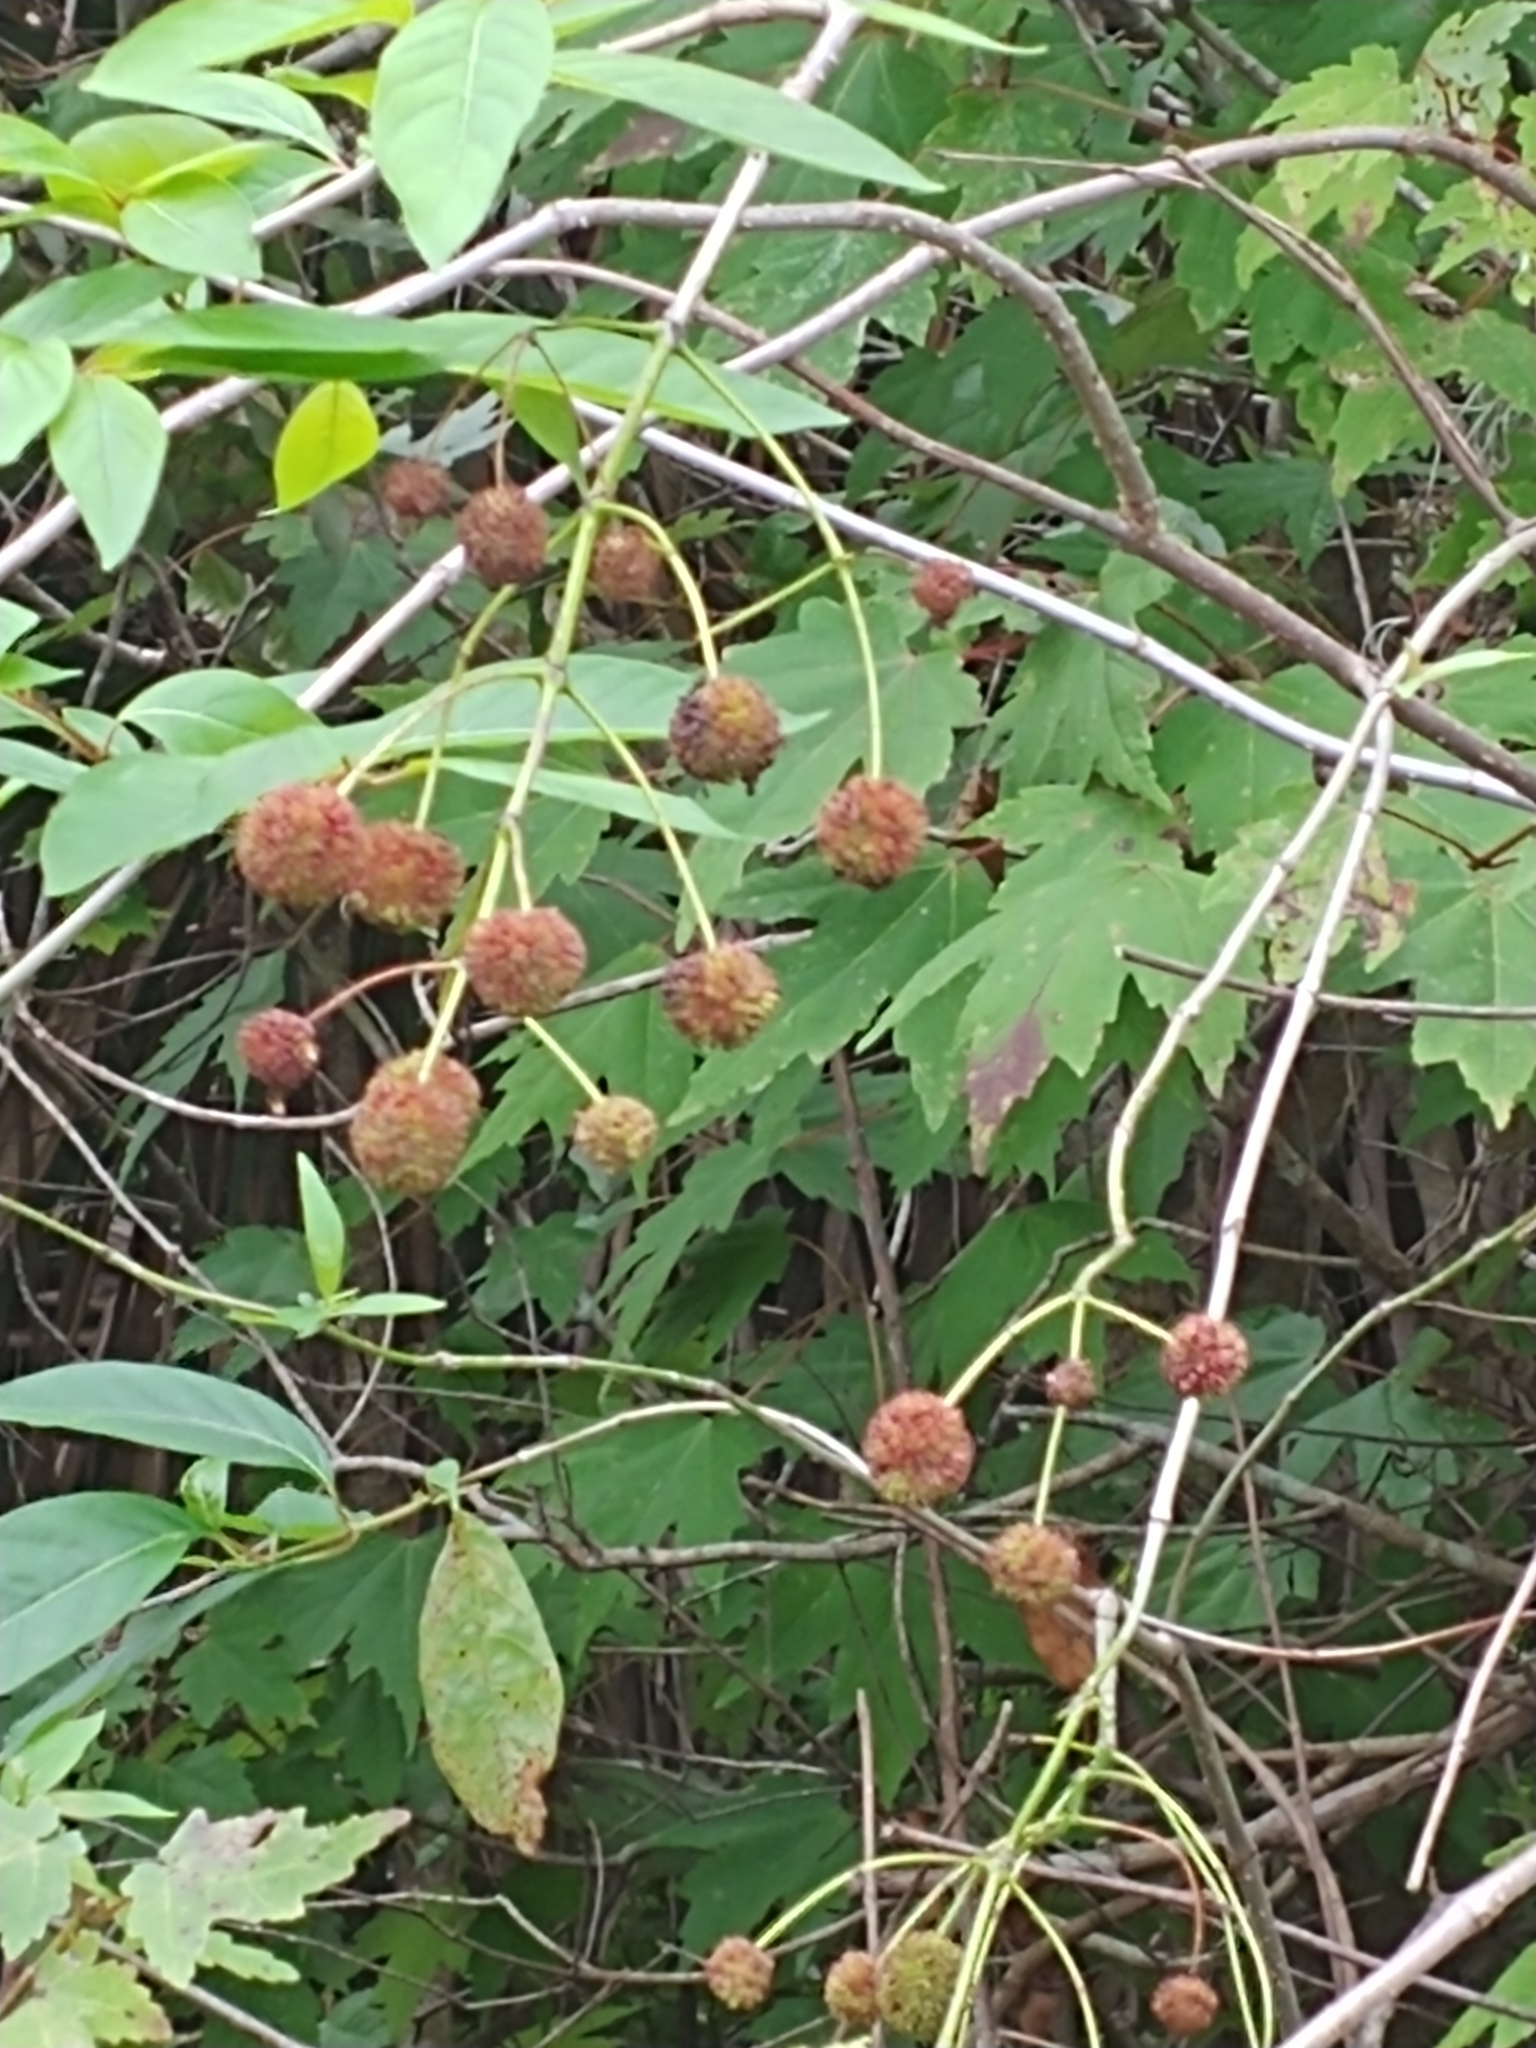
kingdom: Plantae
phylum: Tracheophyta
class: Magnoliopsida
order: Gentianales
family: Rubiaceae
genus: Cephalanthus
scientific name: Cephalanthus occidentalis
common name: Button-willow
